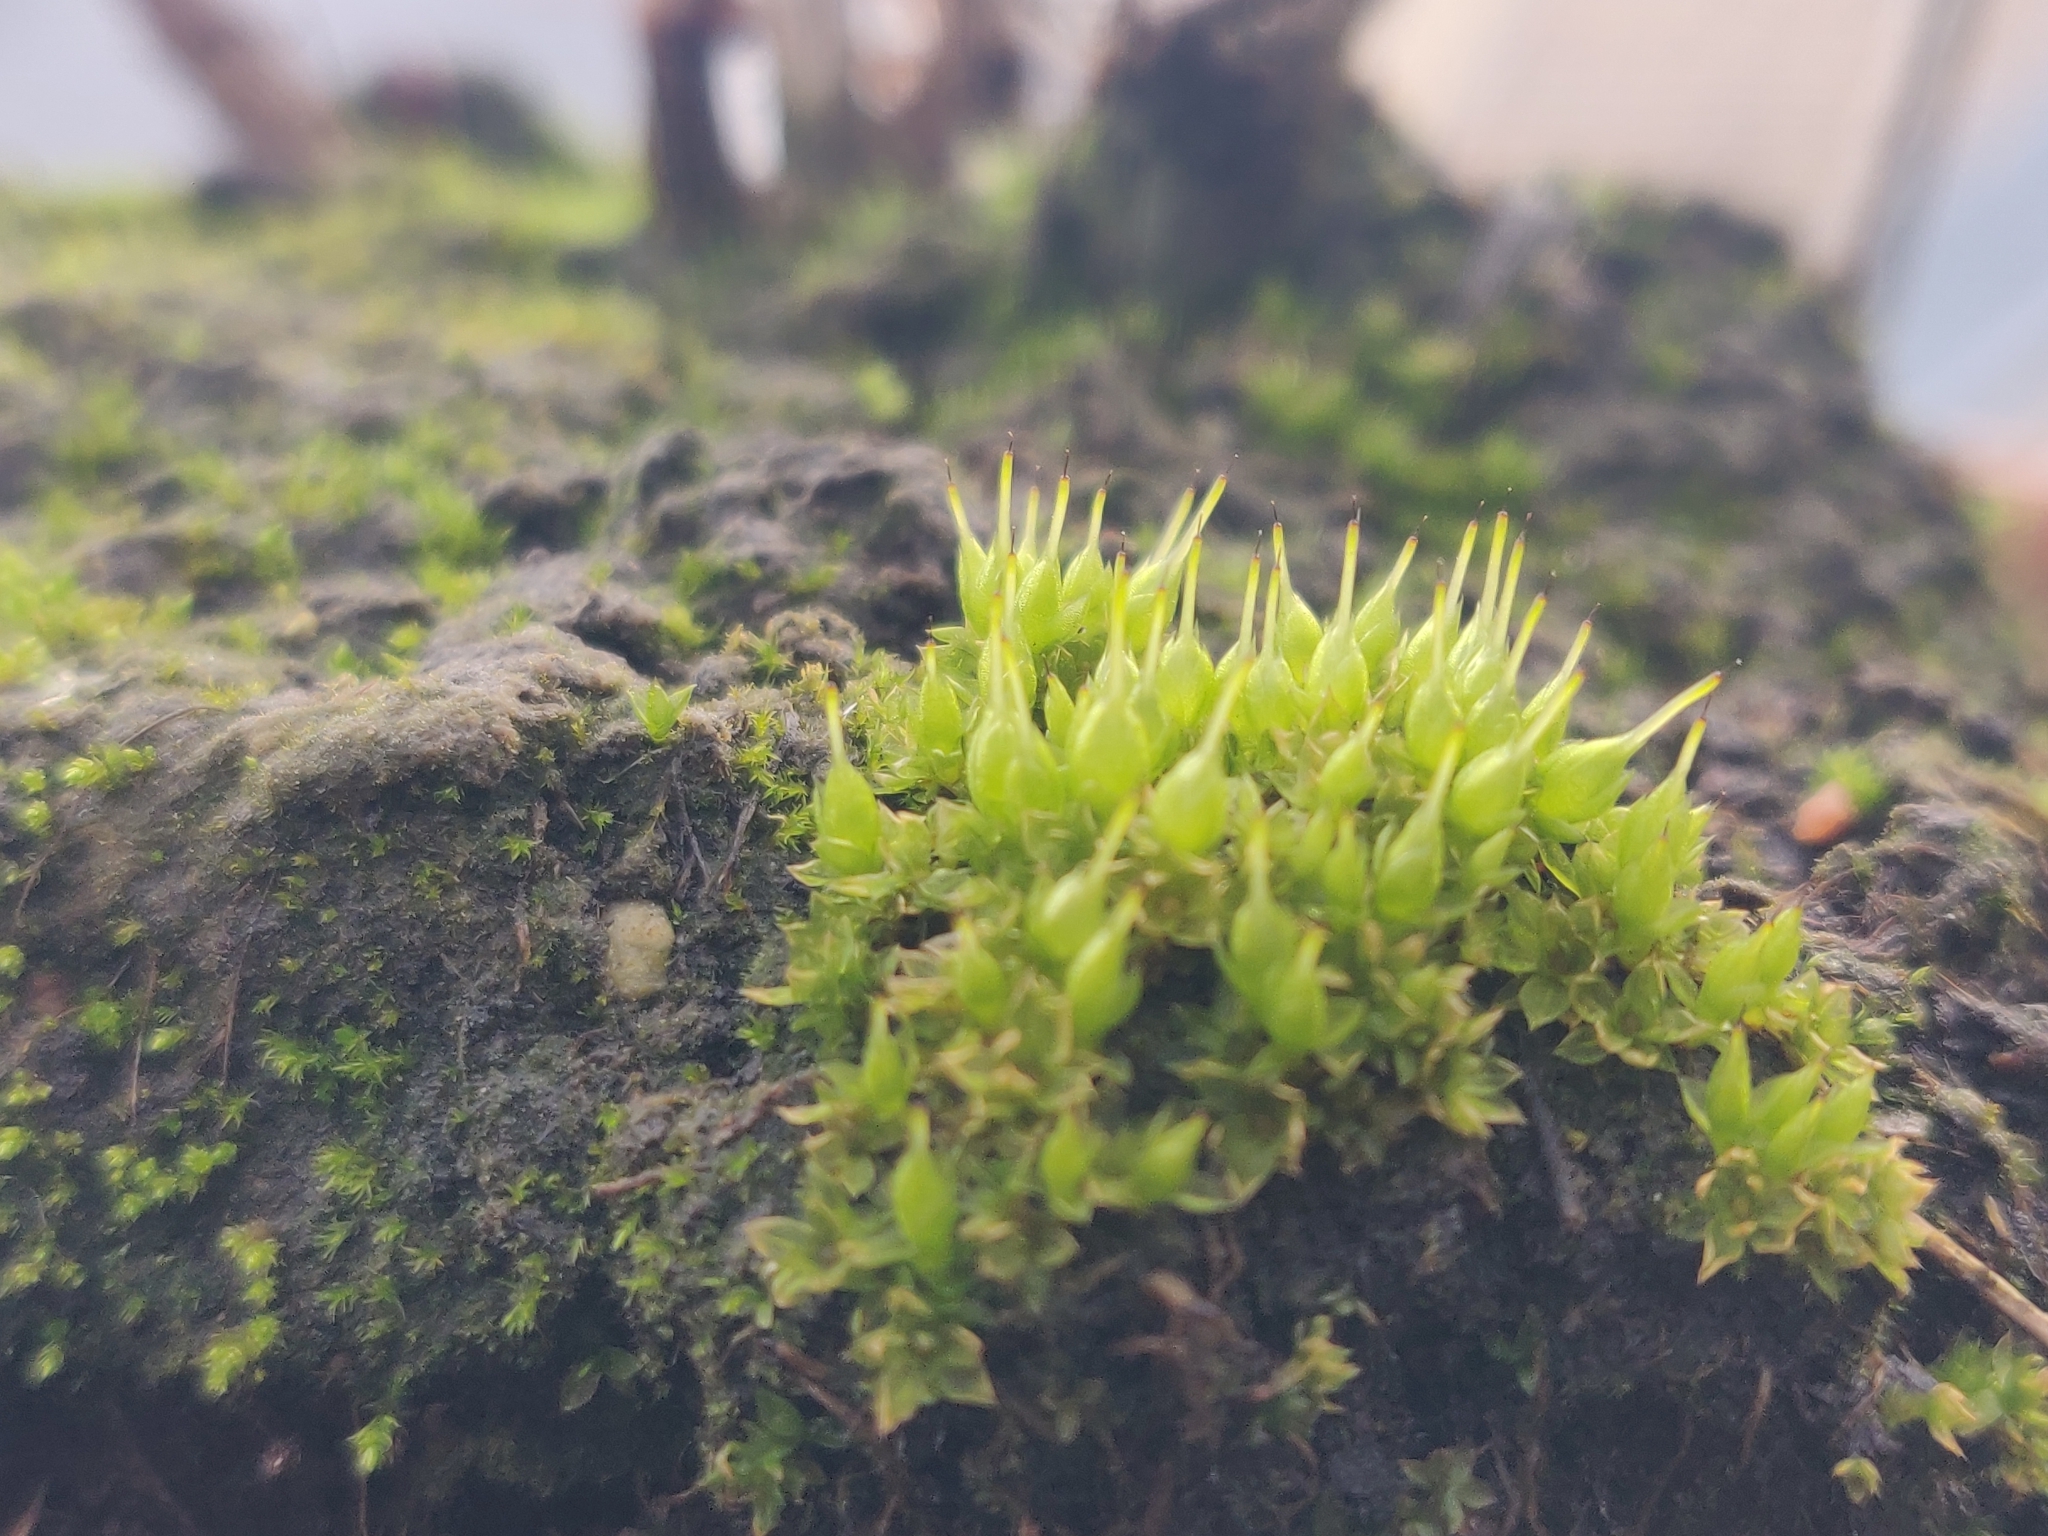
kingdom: Plantae
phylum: Bryophyta
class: Bryopsida
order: Funariales
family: Funariaceae
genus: Funaria
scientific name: Funaria hygrometrica
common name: Common cord moss
